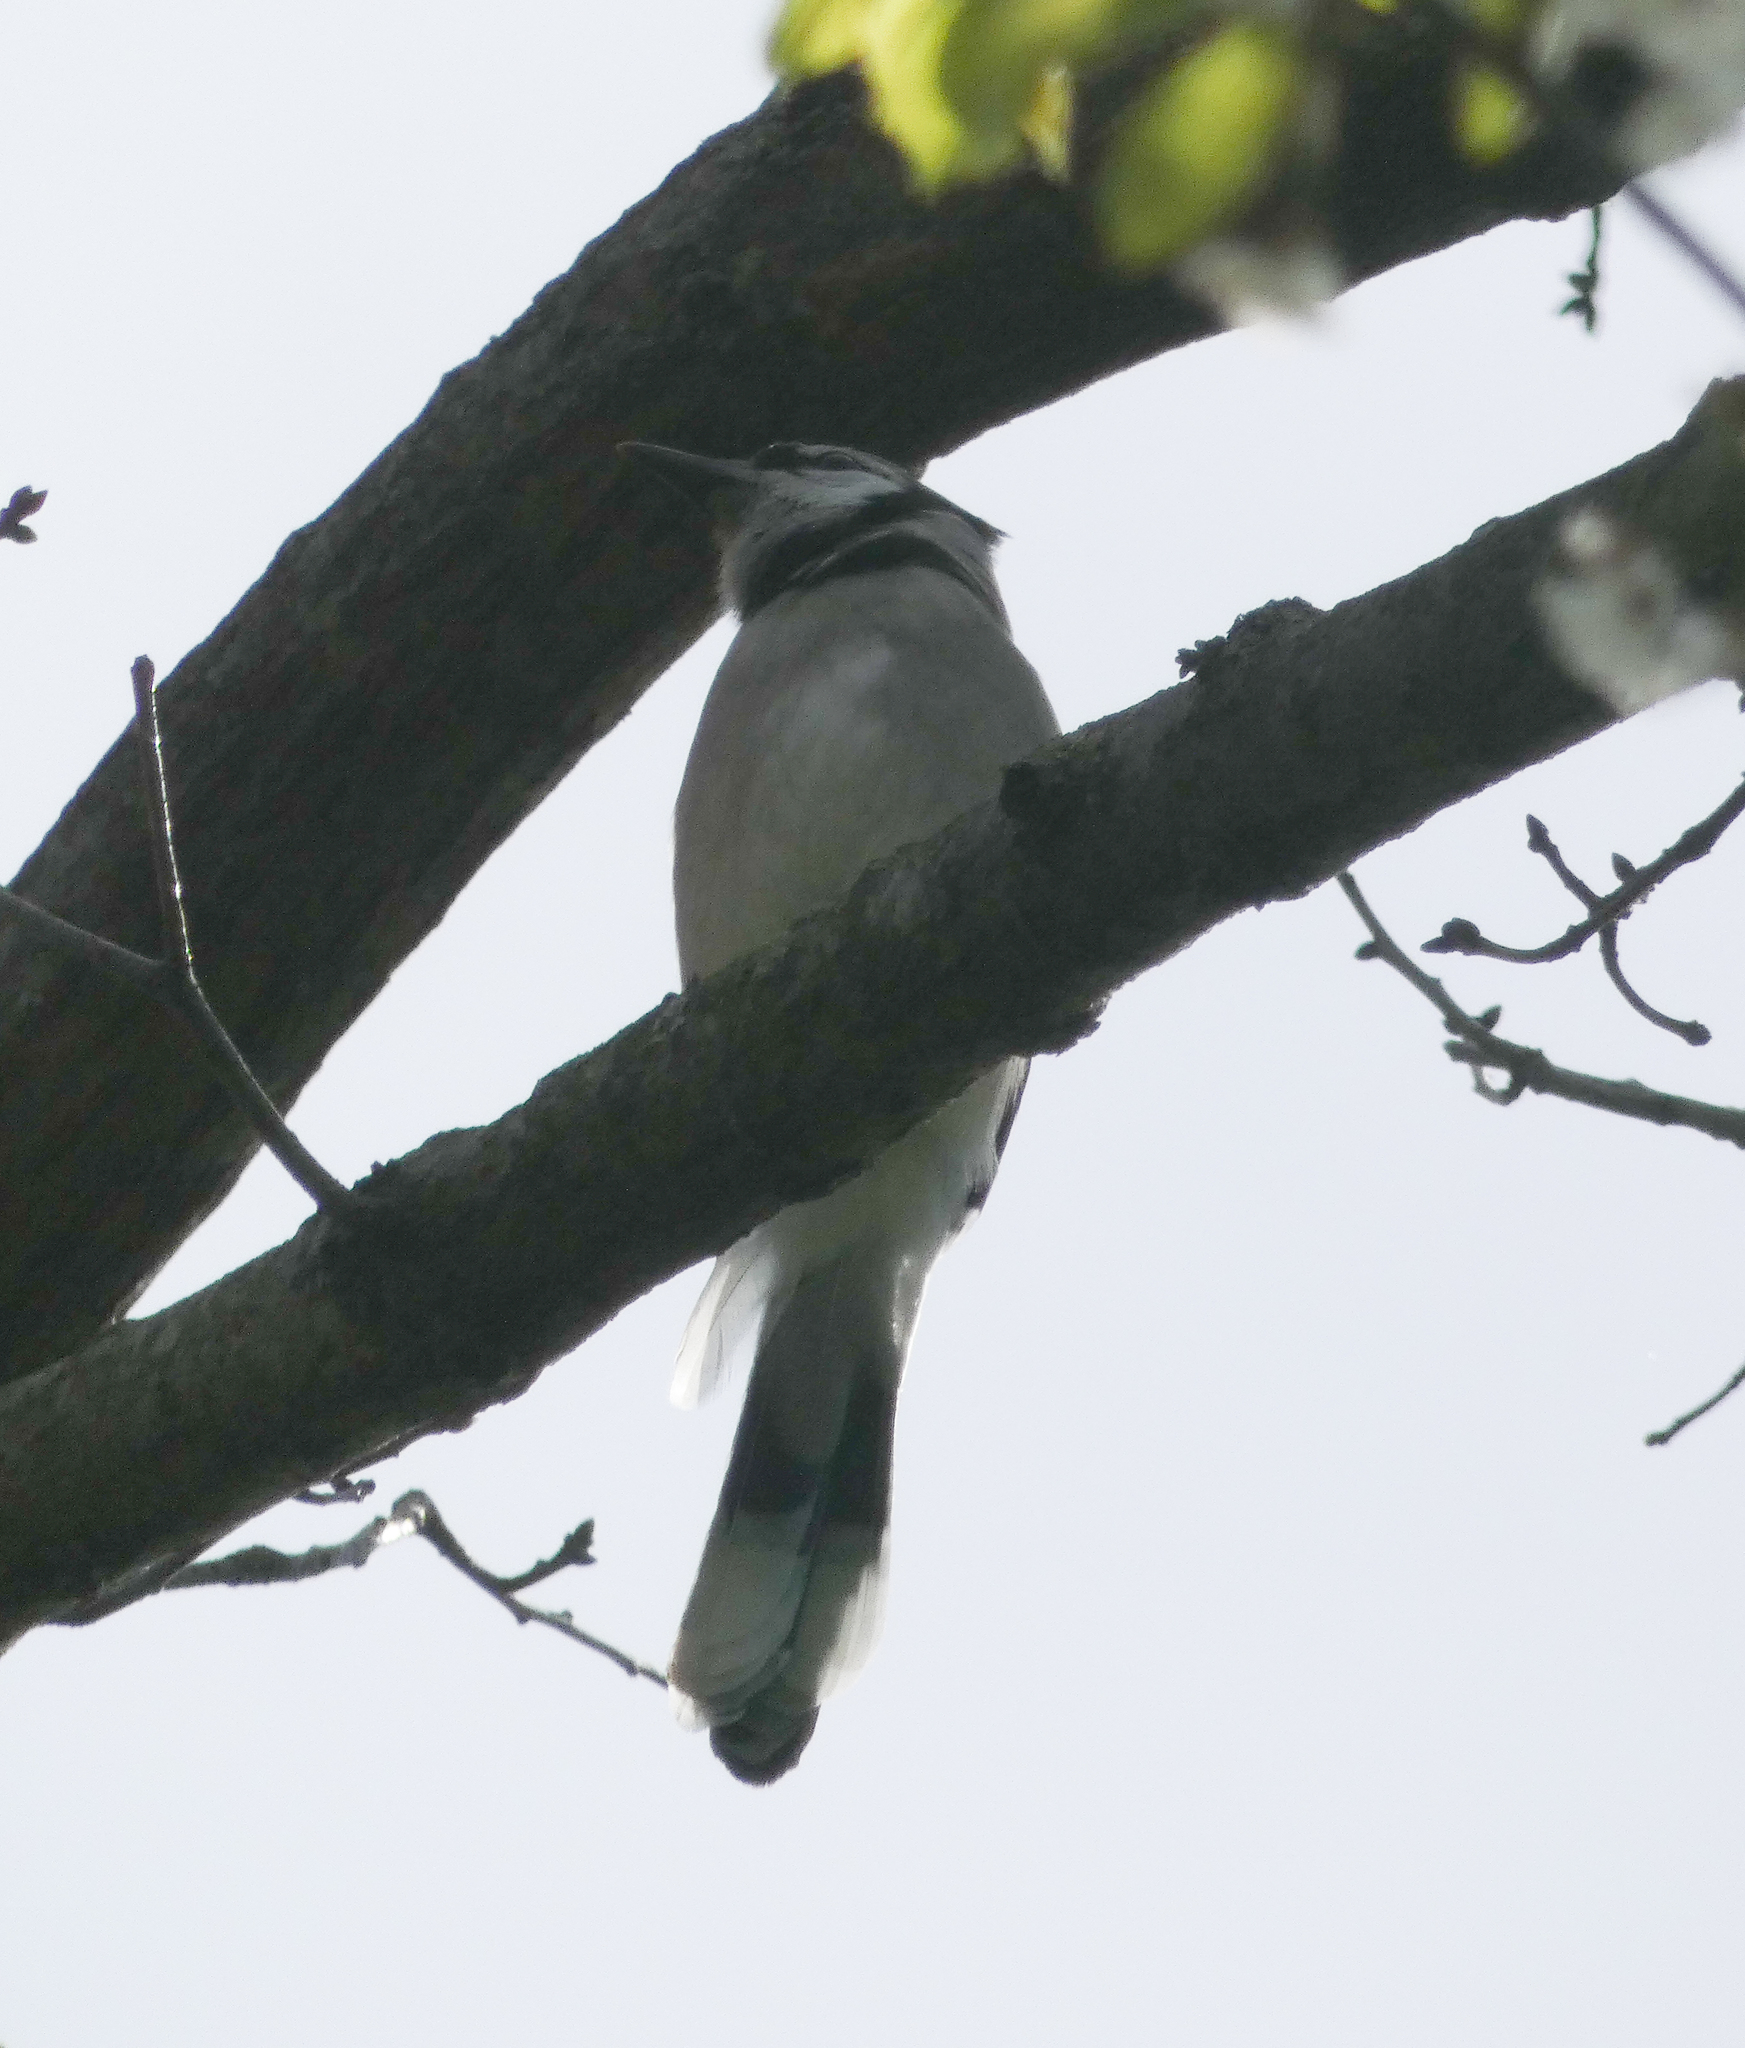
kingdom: Animalia
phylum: Chordata
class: Aves
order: Passeriformes
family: Corvidae
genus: Cyanocitta
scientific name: Cyanocitta cristata
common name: Blue jay
